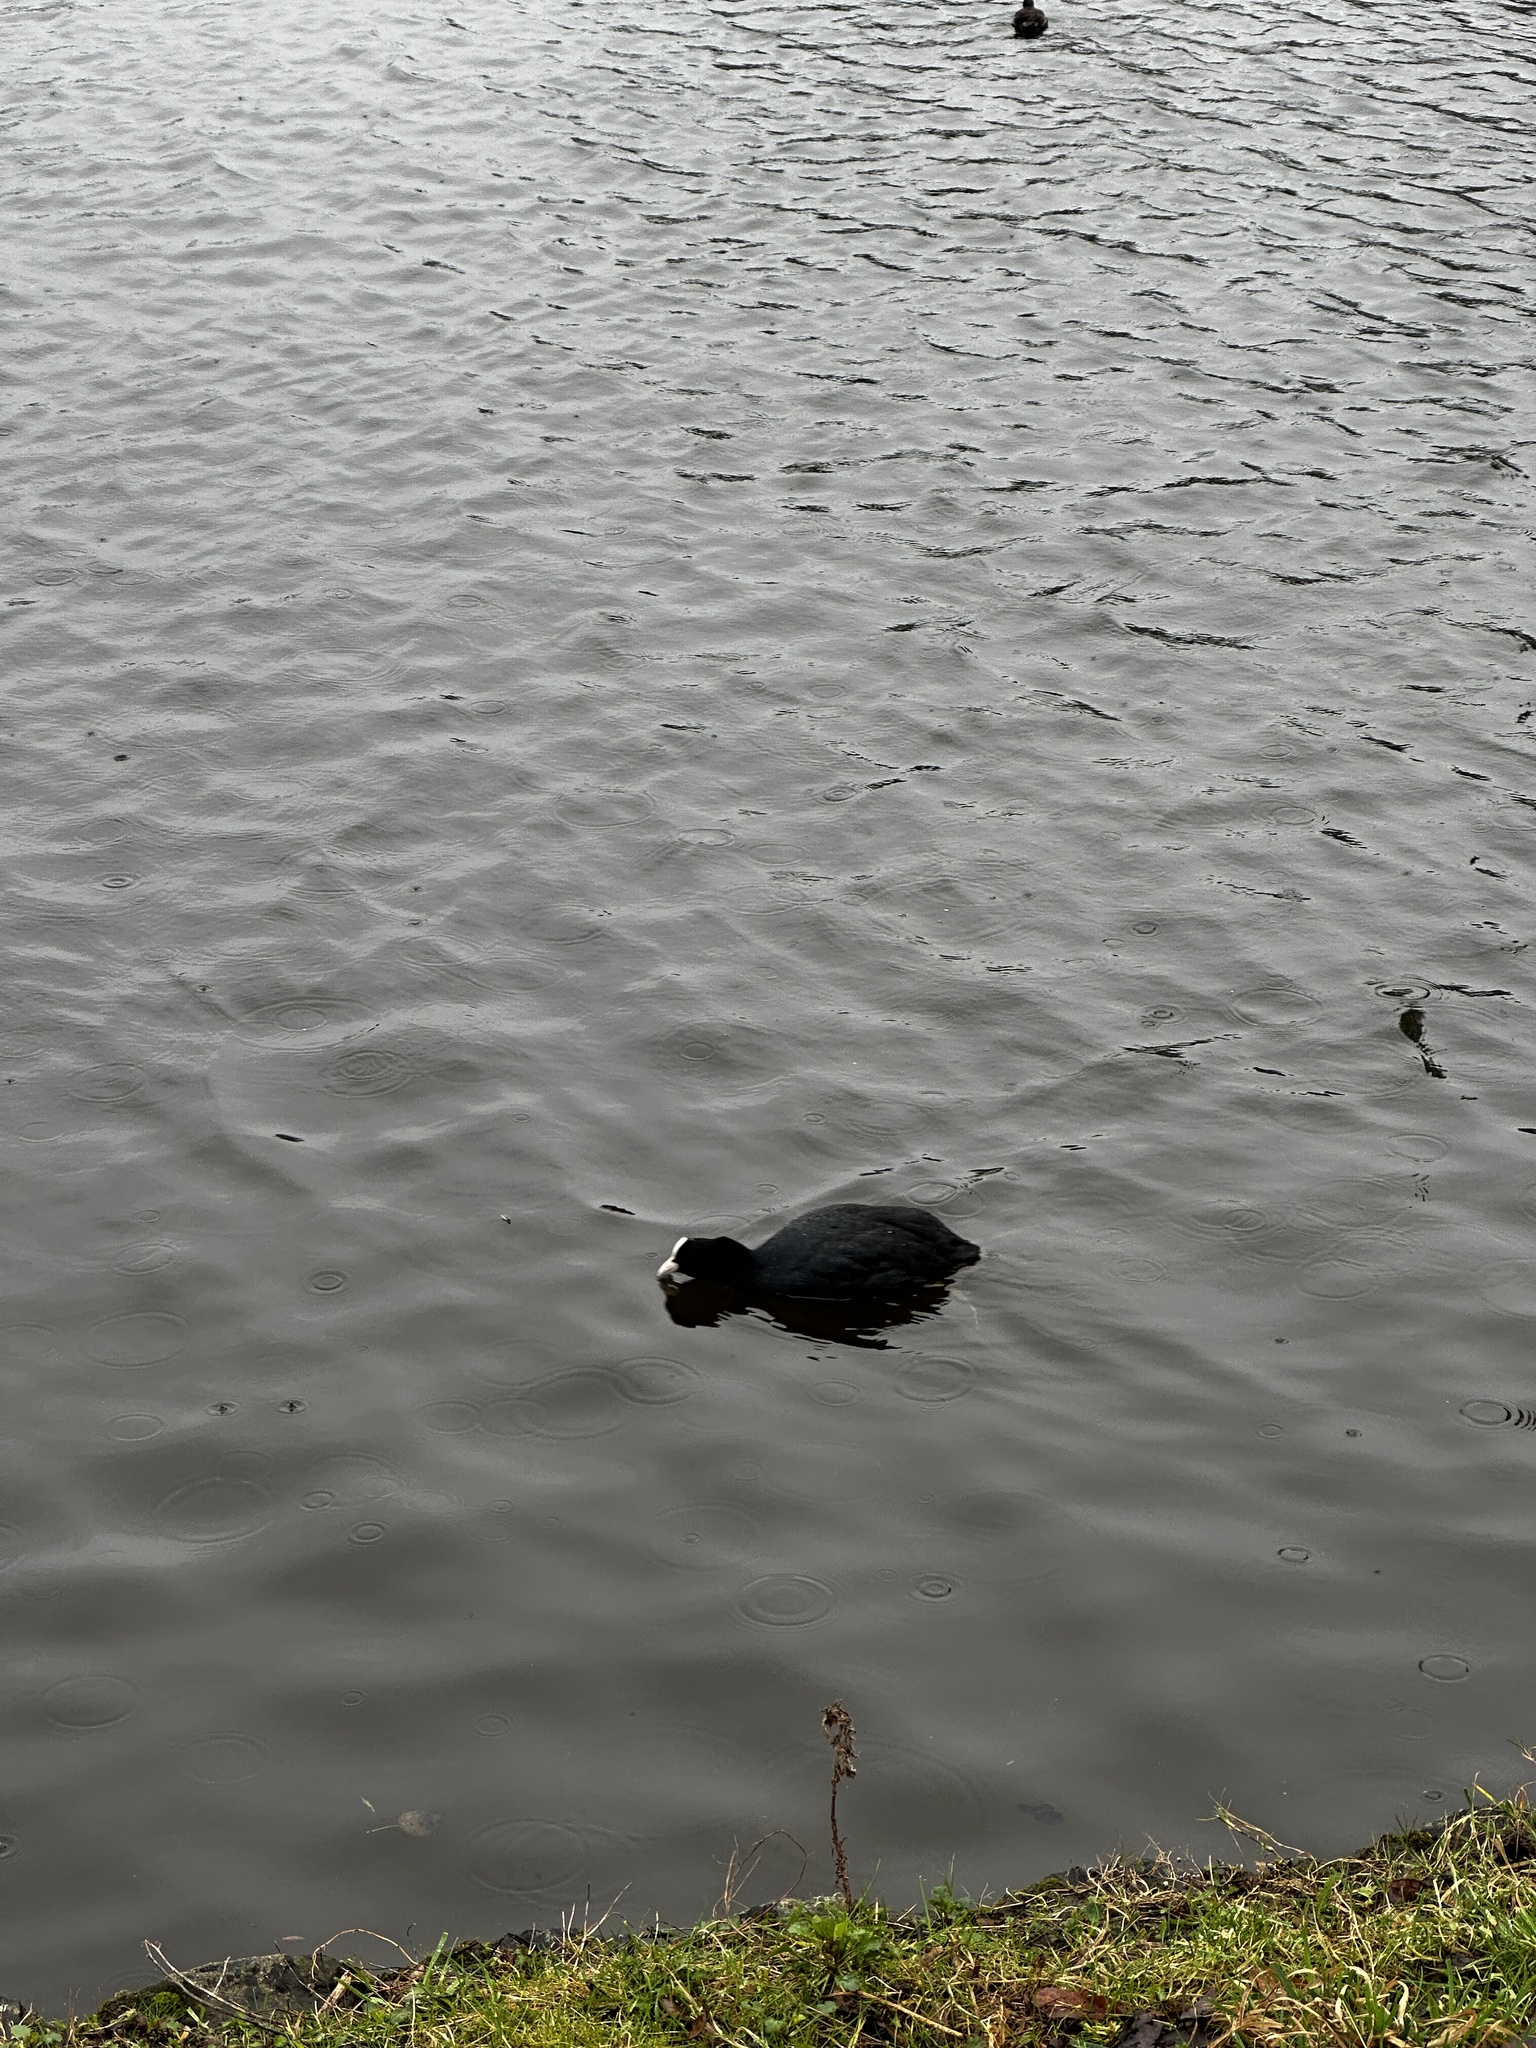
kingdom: Animalia
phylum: Chordata
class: Aves
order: Gruiformes
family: Rallidae
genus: Fulica
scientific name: Fulica atra
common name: Eurasian coot
